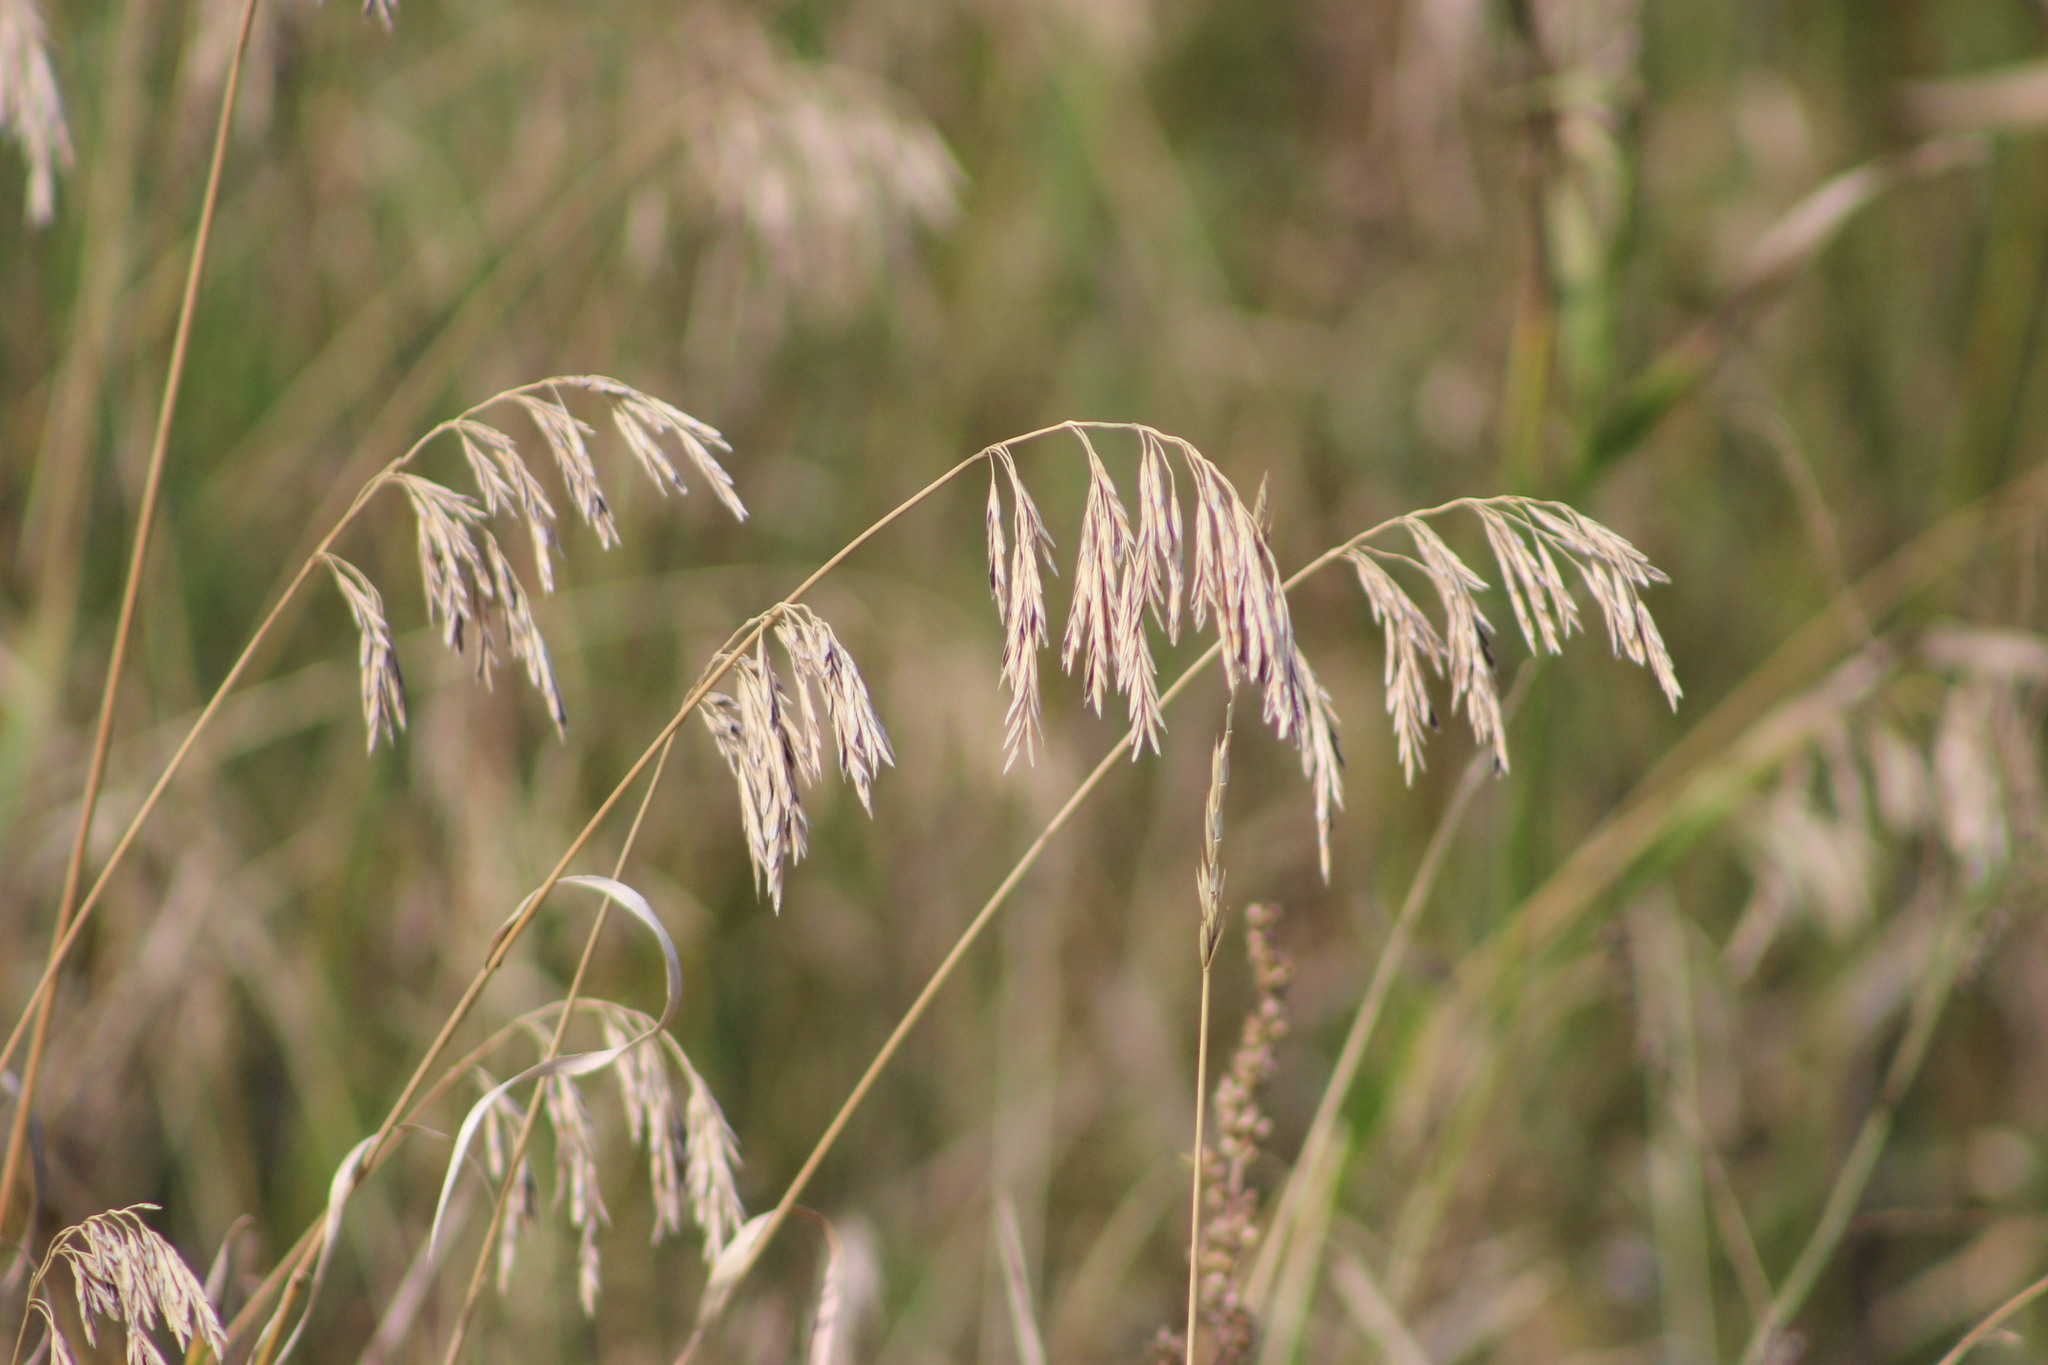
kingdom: Plantae
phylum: Tracheophyta
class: Liliopsida
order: Poales
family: Poaceae
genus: Bromus
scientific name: Bromus inermis
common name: Smooth brome
